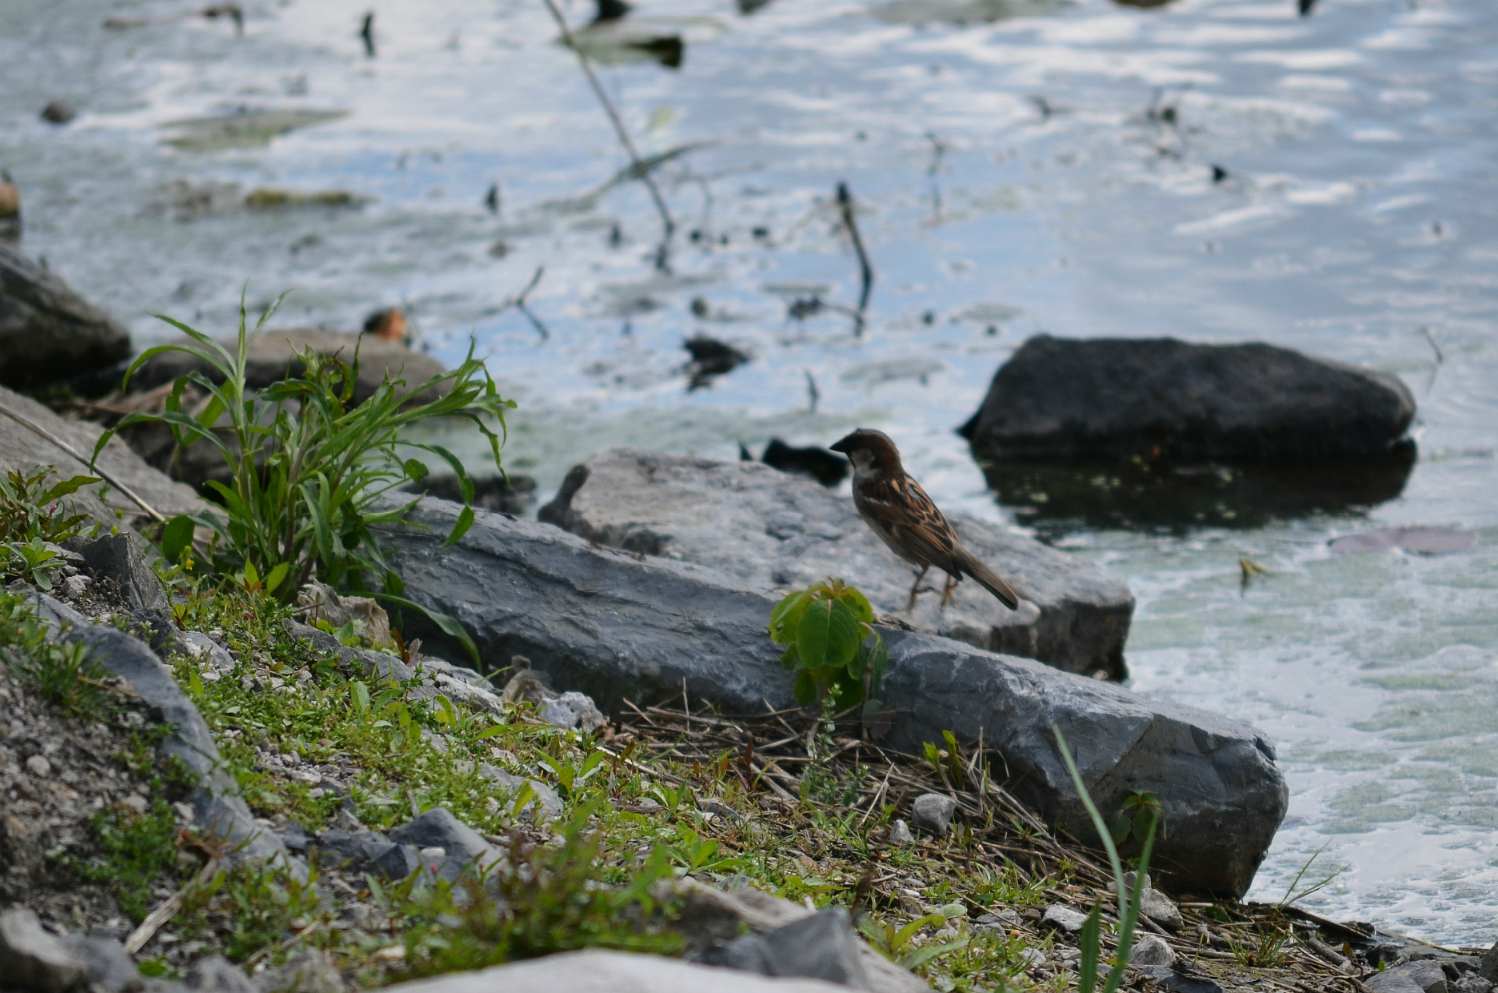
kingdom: Animalia
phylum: Chordata
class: Aves
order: Passeriformes
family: Passeridae
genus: Passer
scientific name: Passer domesticus
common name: House sparrow
